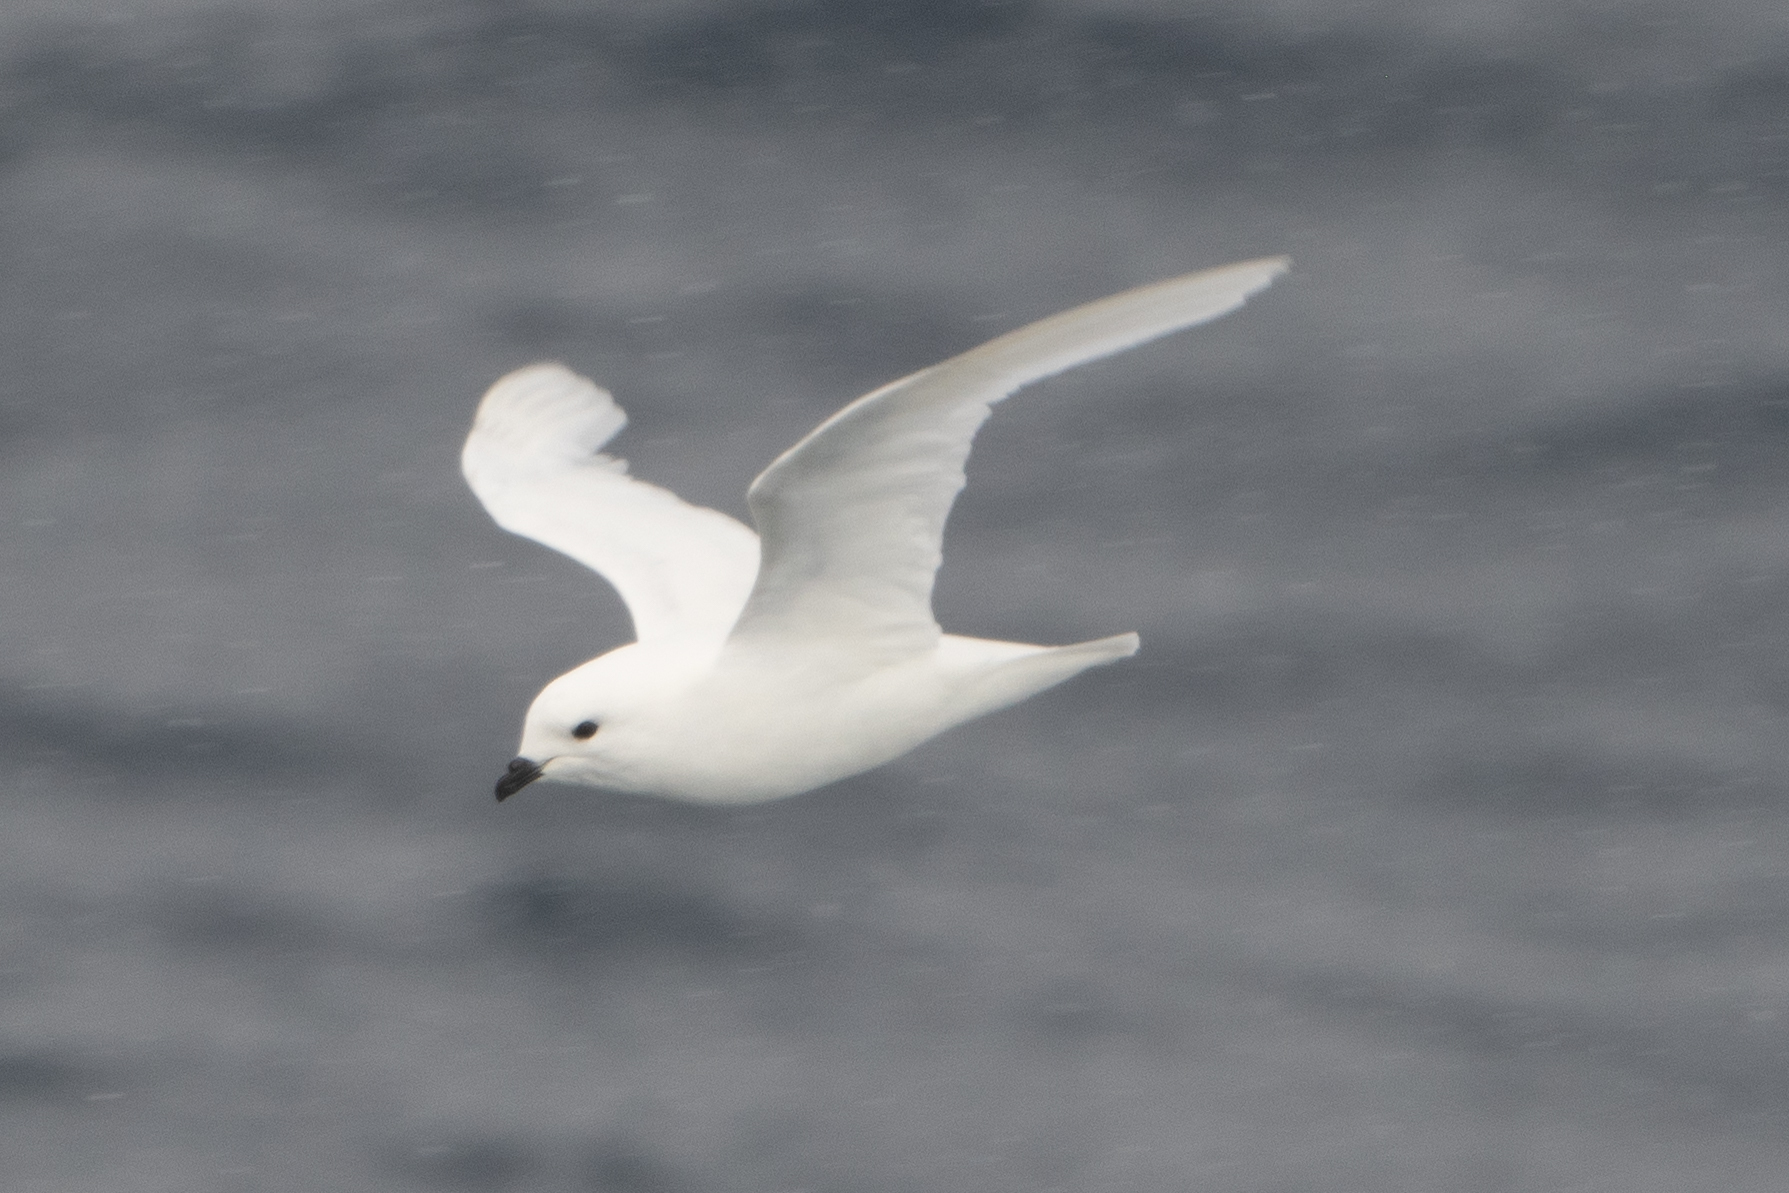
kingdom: Animalia
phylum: Chordata
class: Aves
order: Procellariiformes
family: Procellariidae
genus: Pagodroma
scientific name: Pagodroma nivea
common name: Snow petrel
